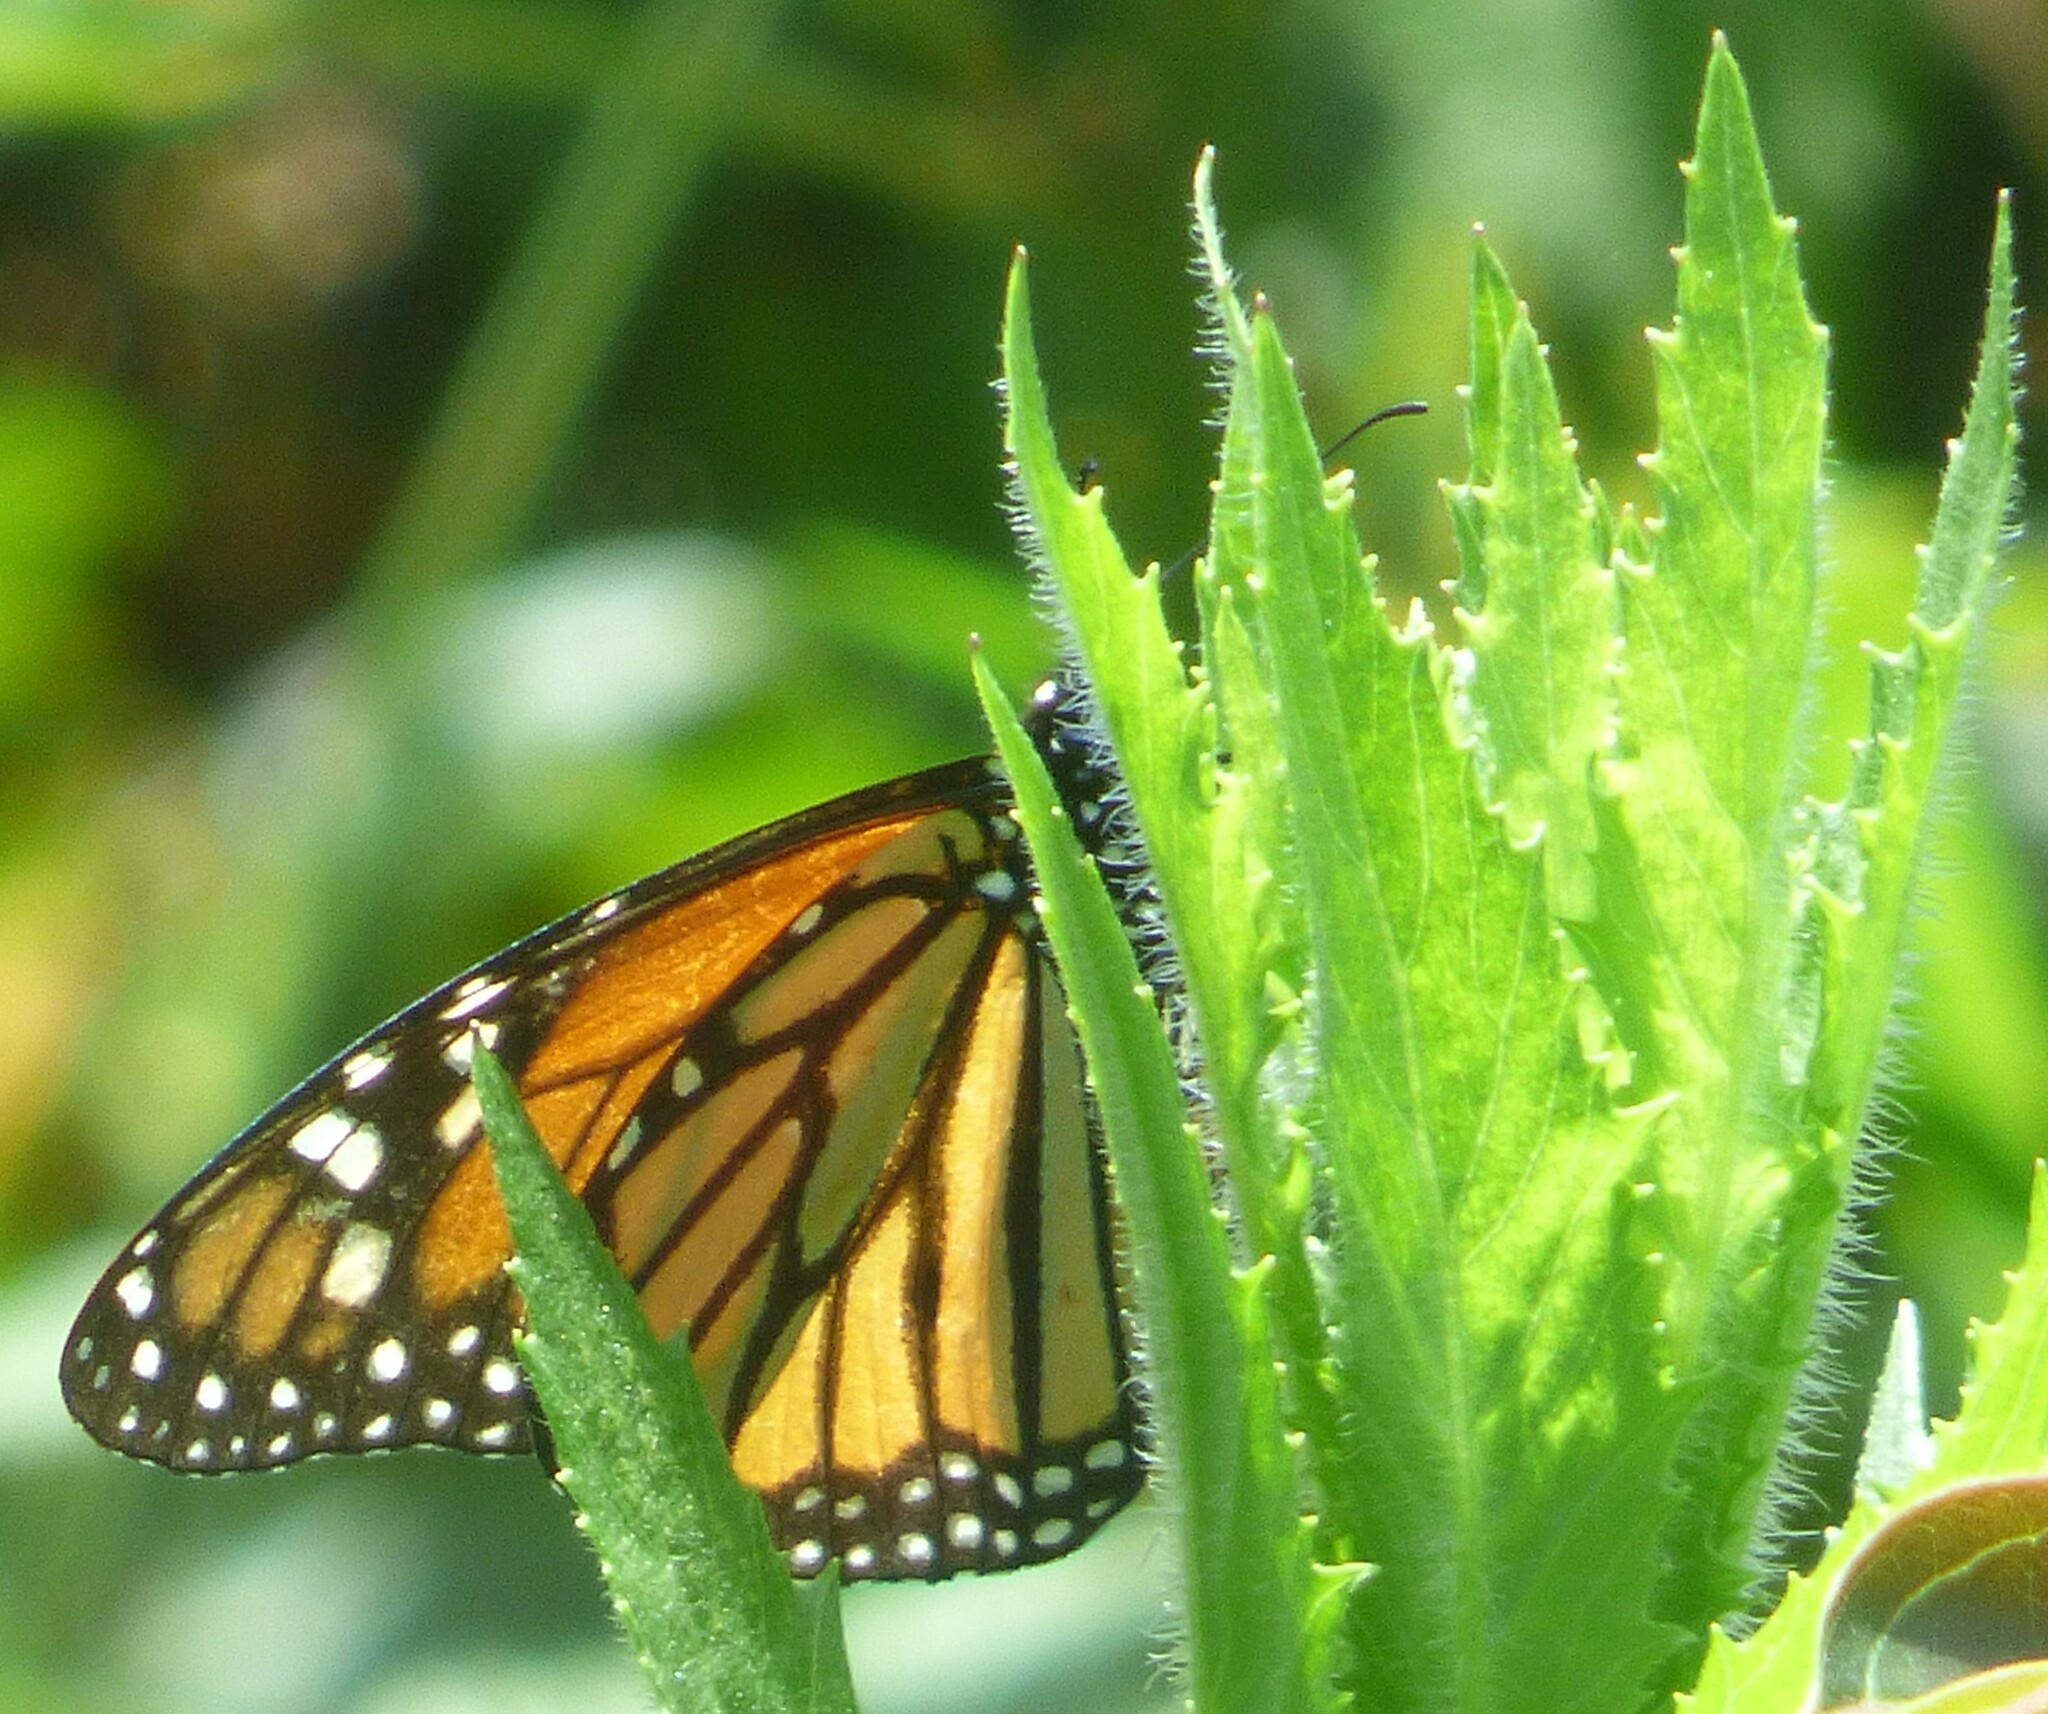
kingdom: Animalia
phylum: Arthropoda
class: Insecta
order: Lepidoptera
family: Nymphalidae
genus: Danaus
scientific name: Danaus plexippus
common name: Monarch
